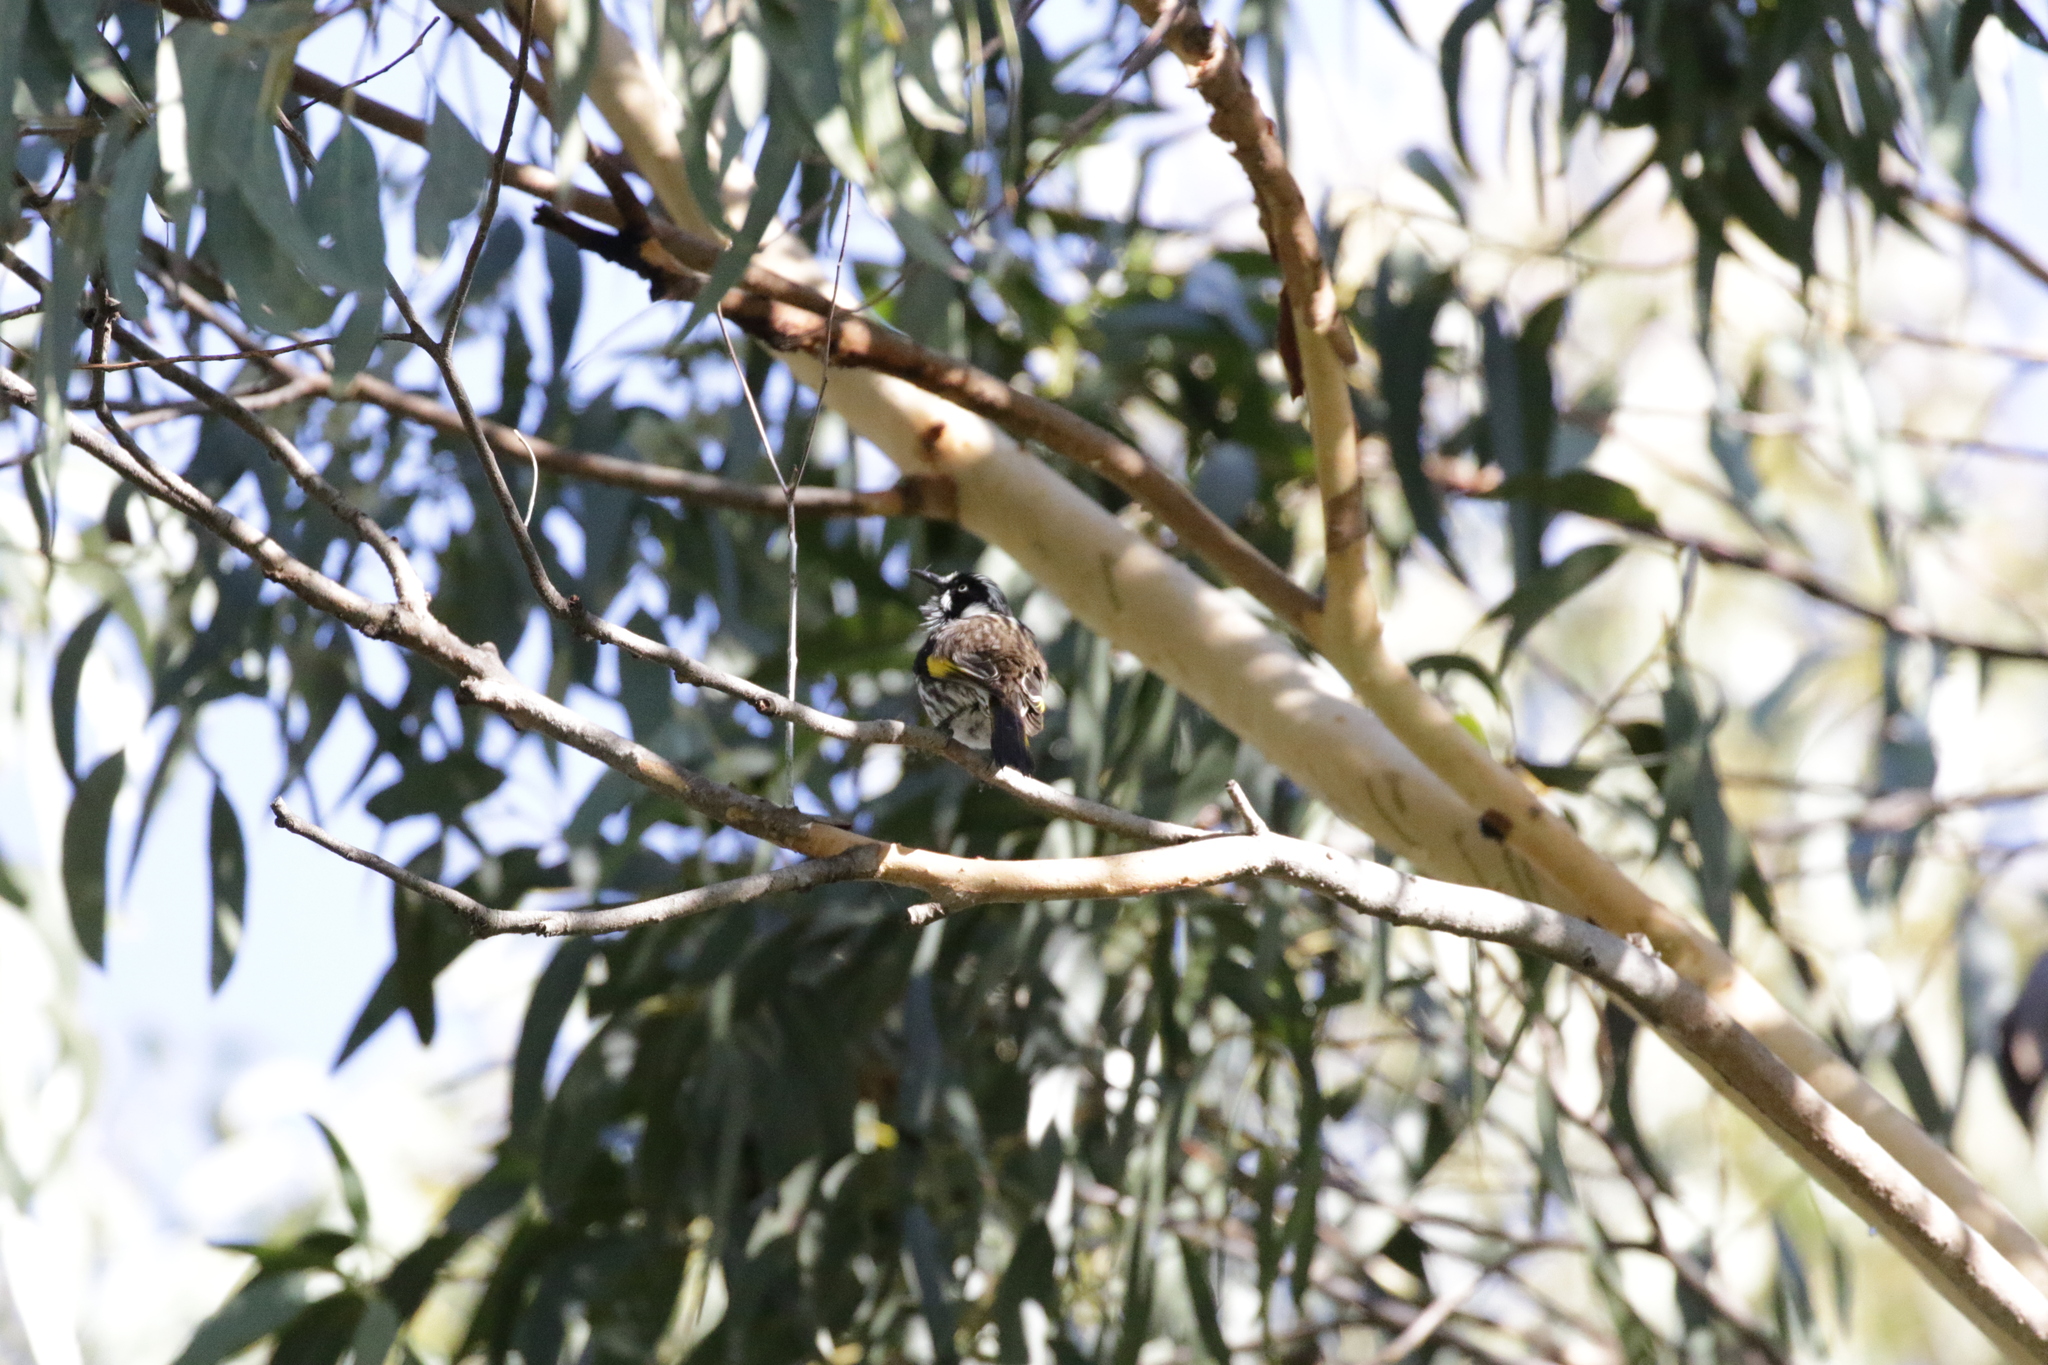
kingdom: Animalia
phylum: Chordata
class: Aves
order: Passeriformes
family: Meliphagidae
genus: Phylidonyris
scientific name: Phylidonyris novaehollandiae
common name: New holland honeyeater
